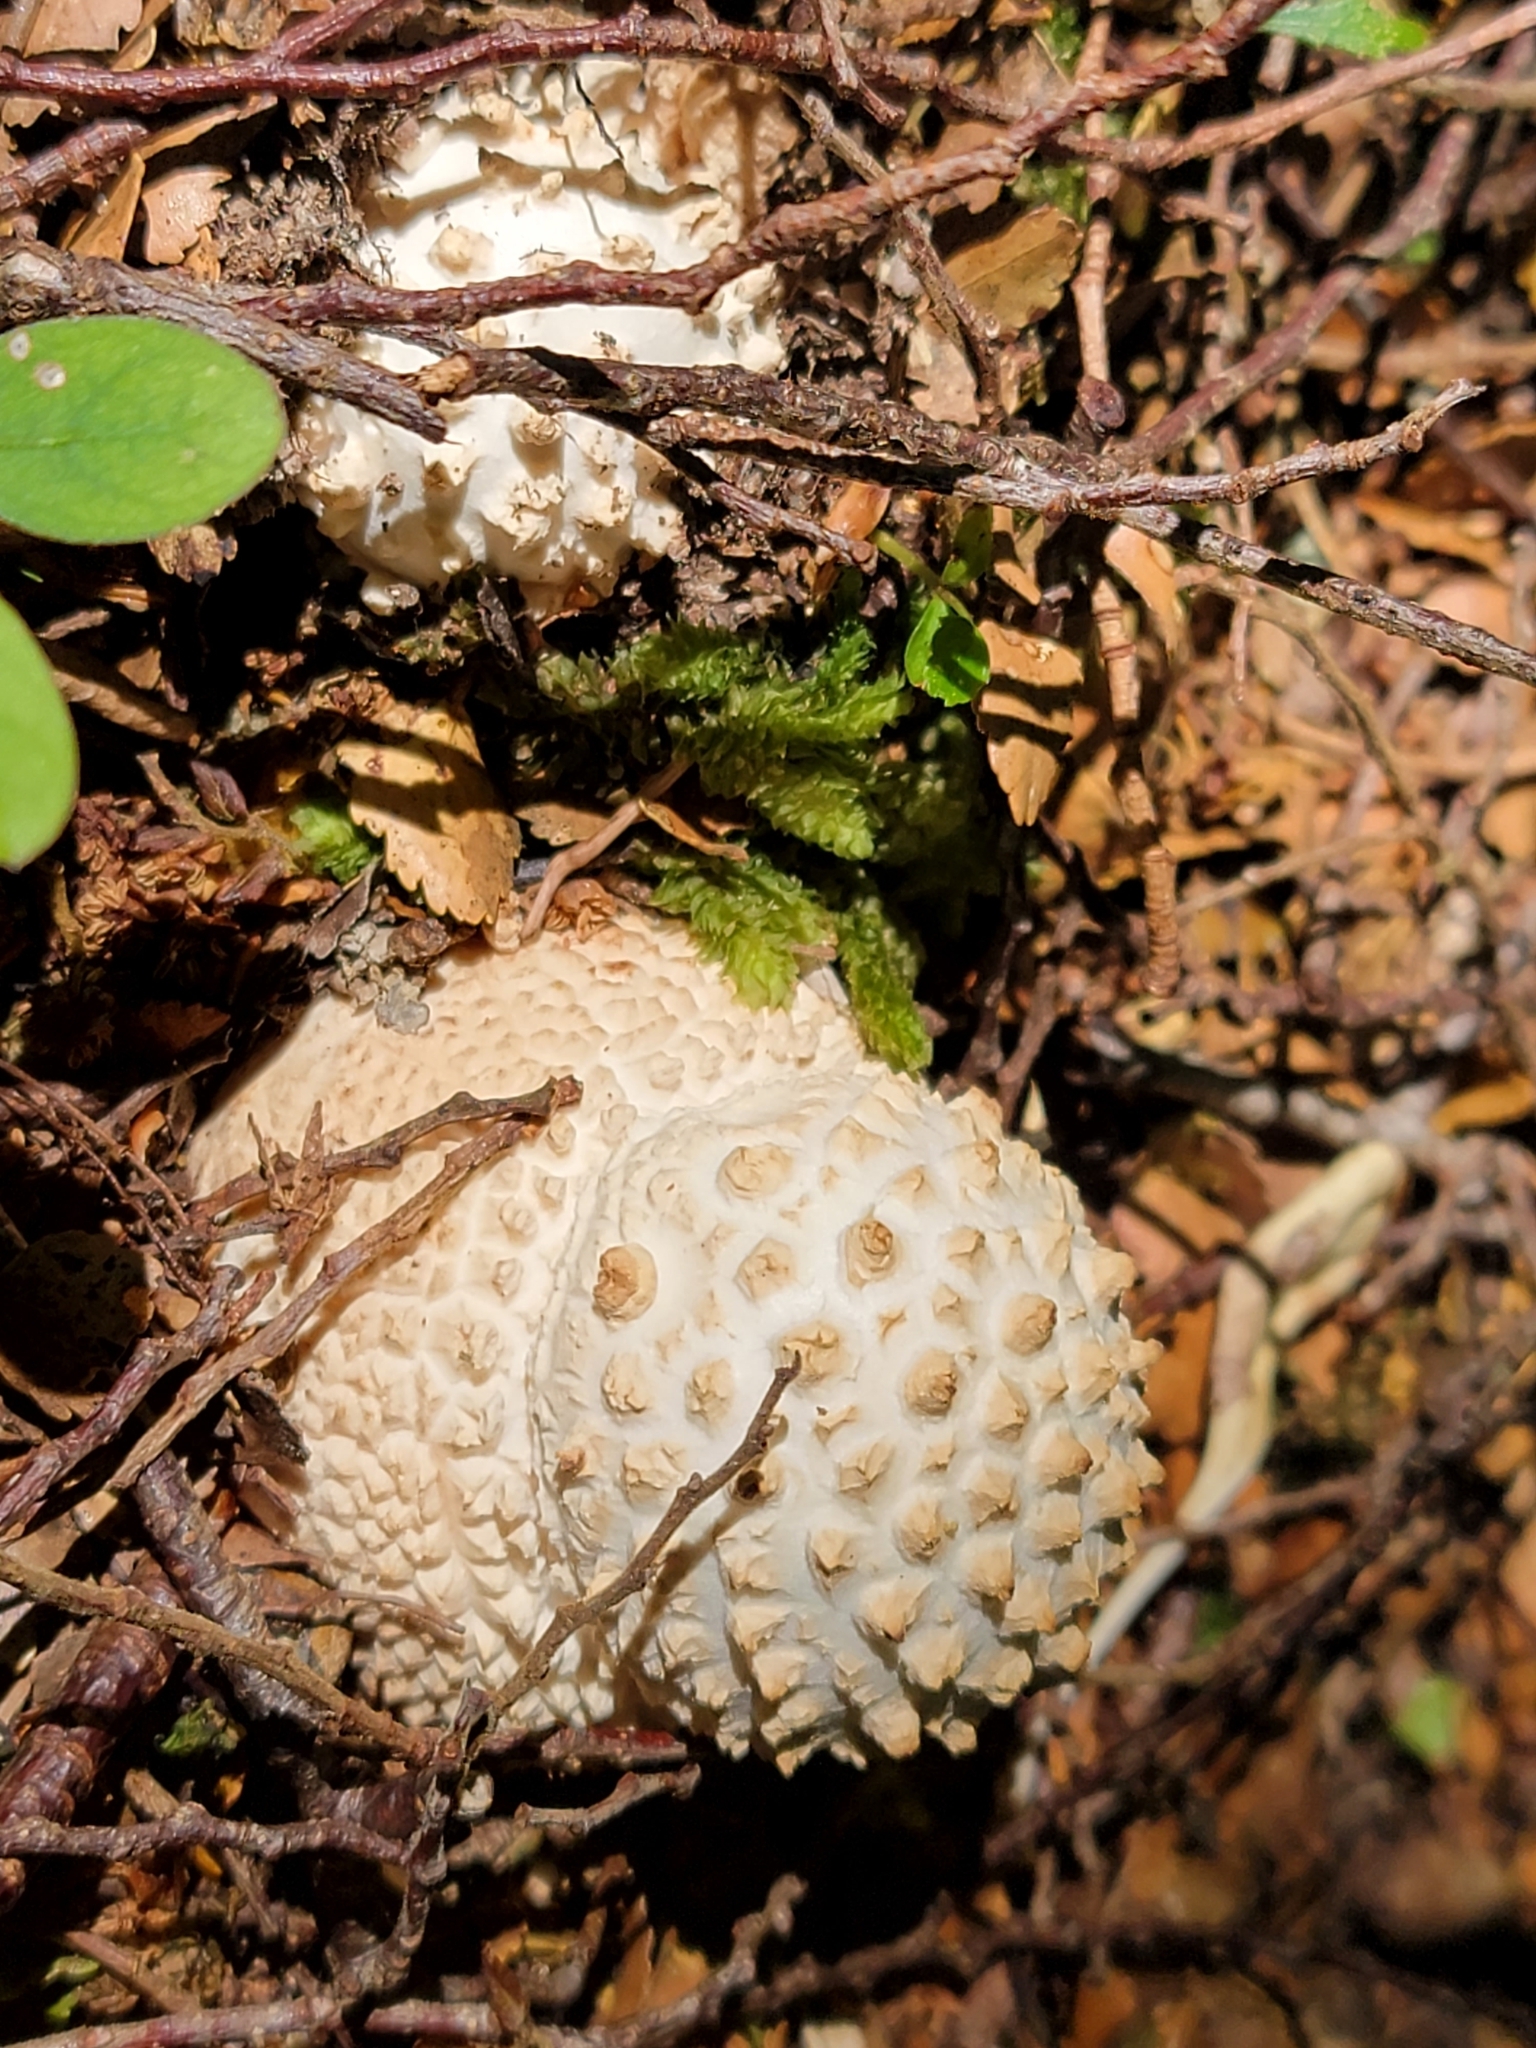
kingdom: Fungi
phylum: Basidiomycota
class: Agaricomycetes
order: Agaricales
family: Amanitaceae
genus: Amanita
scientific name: Amanita pareparina
